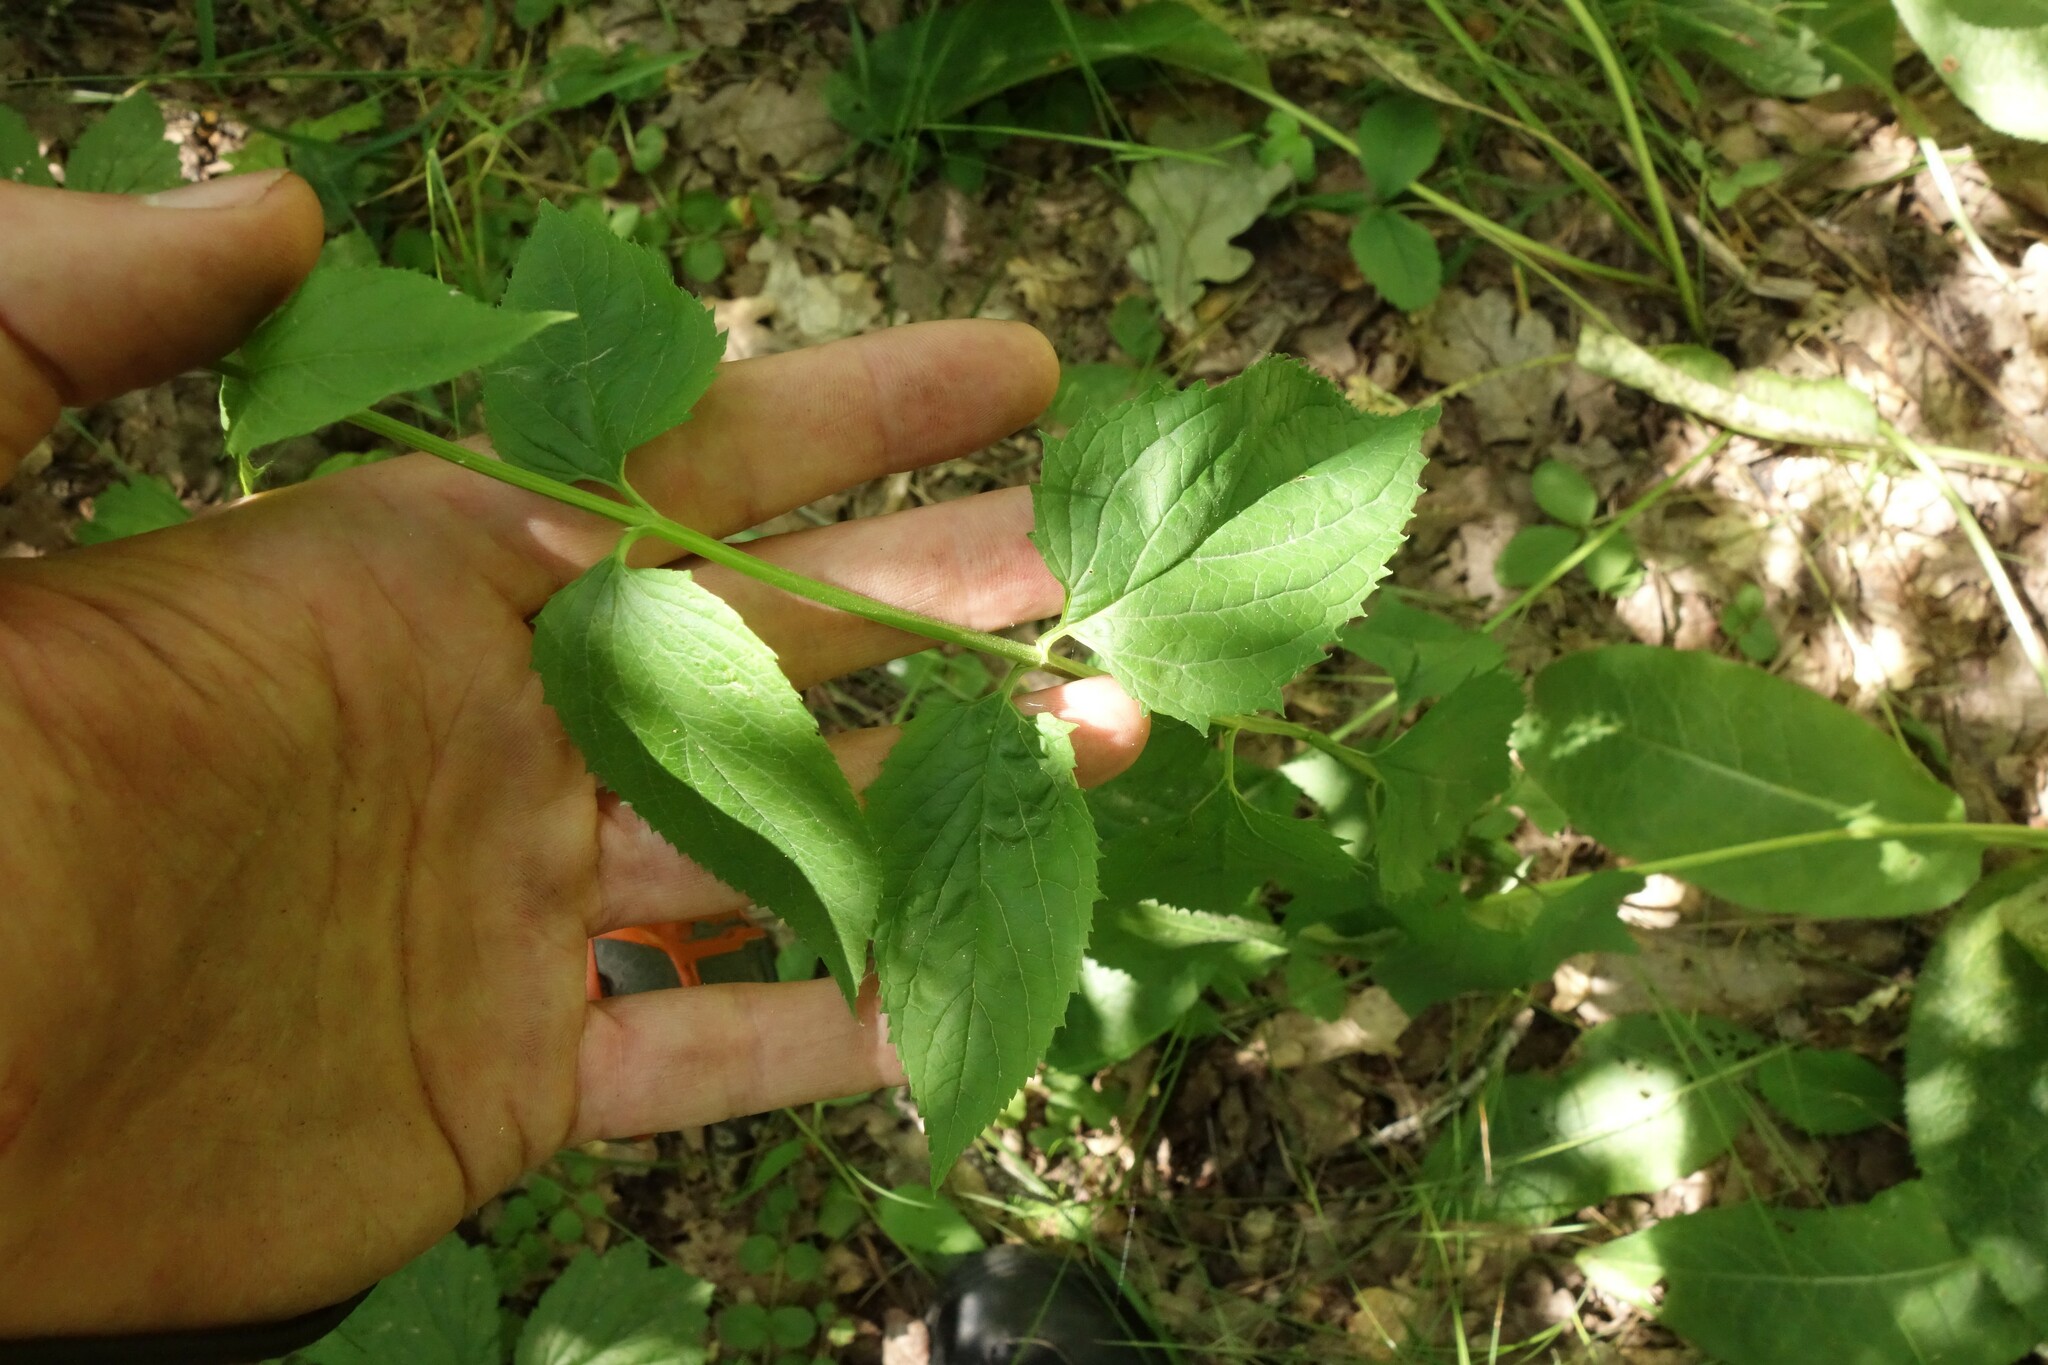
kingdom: Plantae
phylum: Tracheophyta
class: Magnoliopsida
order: Lamiales
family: Scrophulariaceae
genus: Scrophularia
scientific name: Scrophularia nodosa
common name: Common figwort
